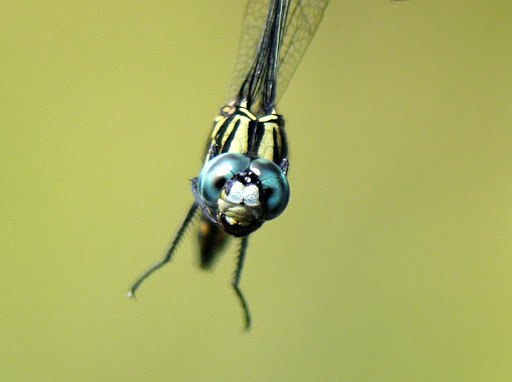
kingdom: Animalia
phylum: Arthropoda
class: Insecta
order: Odonata
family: Libellulidae
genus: Orthetrum
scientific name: Orthetrum julia
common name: Julia skimmer
